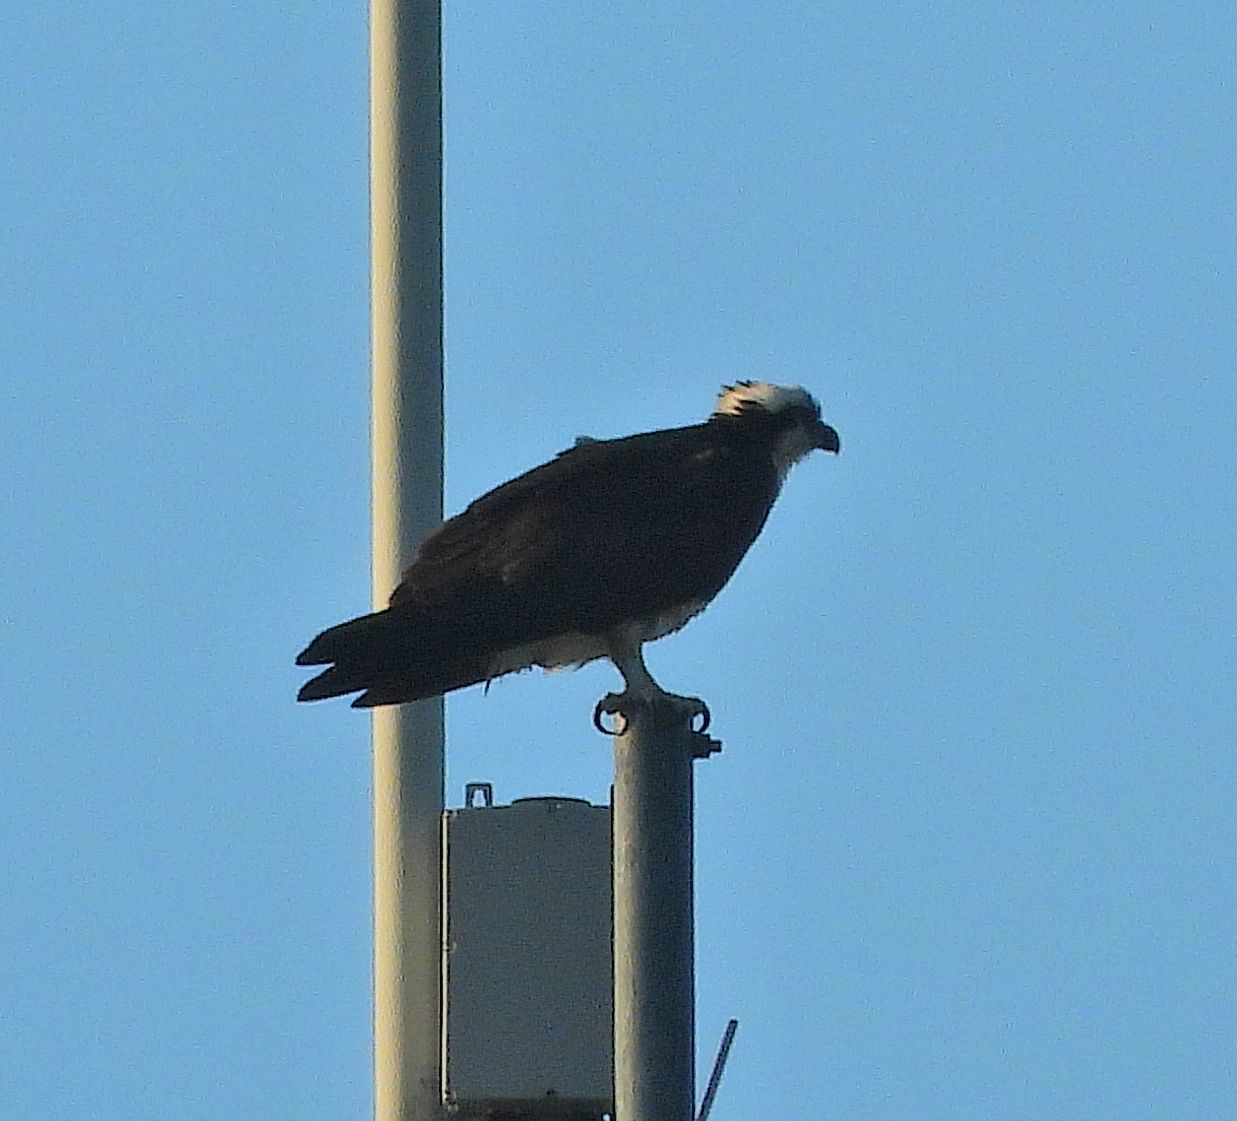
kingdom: Animalia
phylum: Chordata
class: Aves
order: Accipitriformes
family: Pandionidae
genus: Pandion
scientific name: Pandion haliaetus
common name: Osprey
